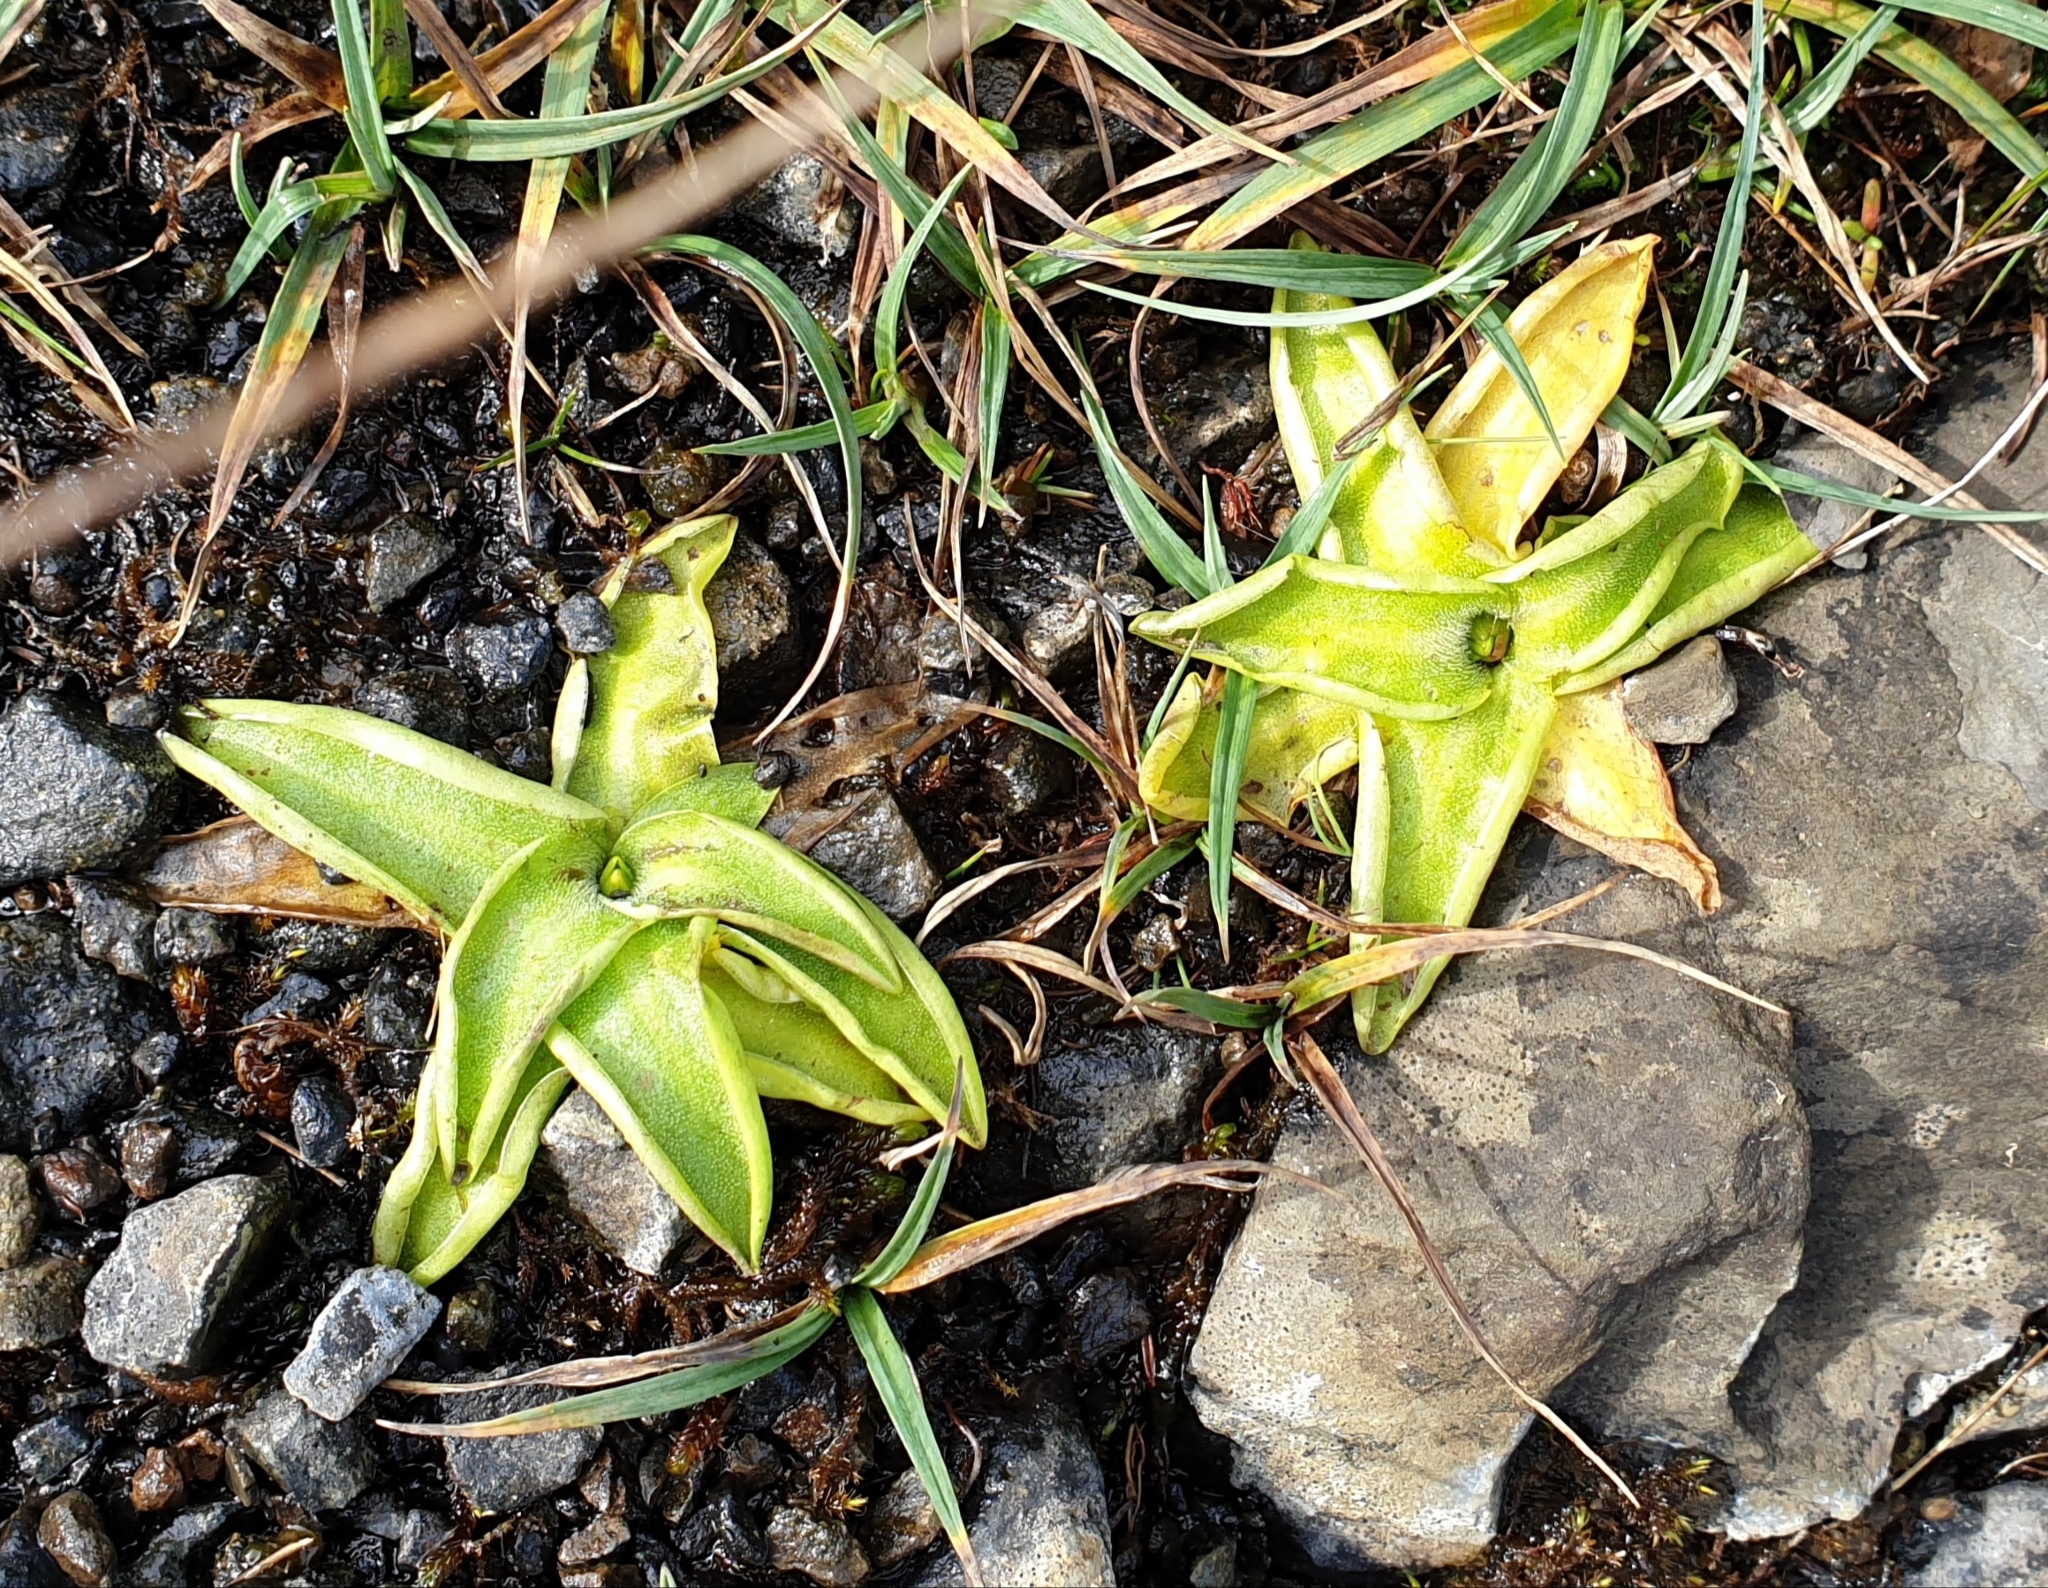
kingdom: Plantae
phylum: Tracheophyta
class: Magnoliopsida
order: Lamiales
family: Lentibulariaceae
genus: Pinguicula
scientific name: Pinguicula vulgaris
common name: Common butterwort
